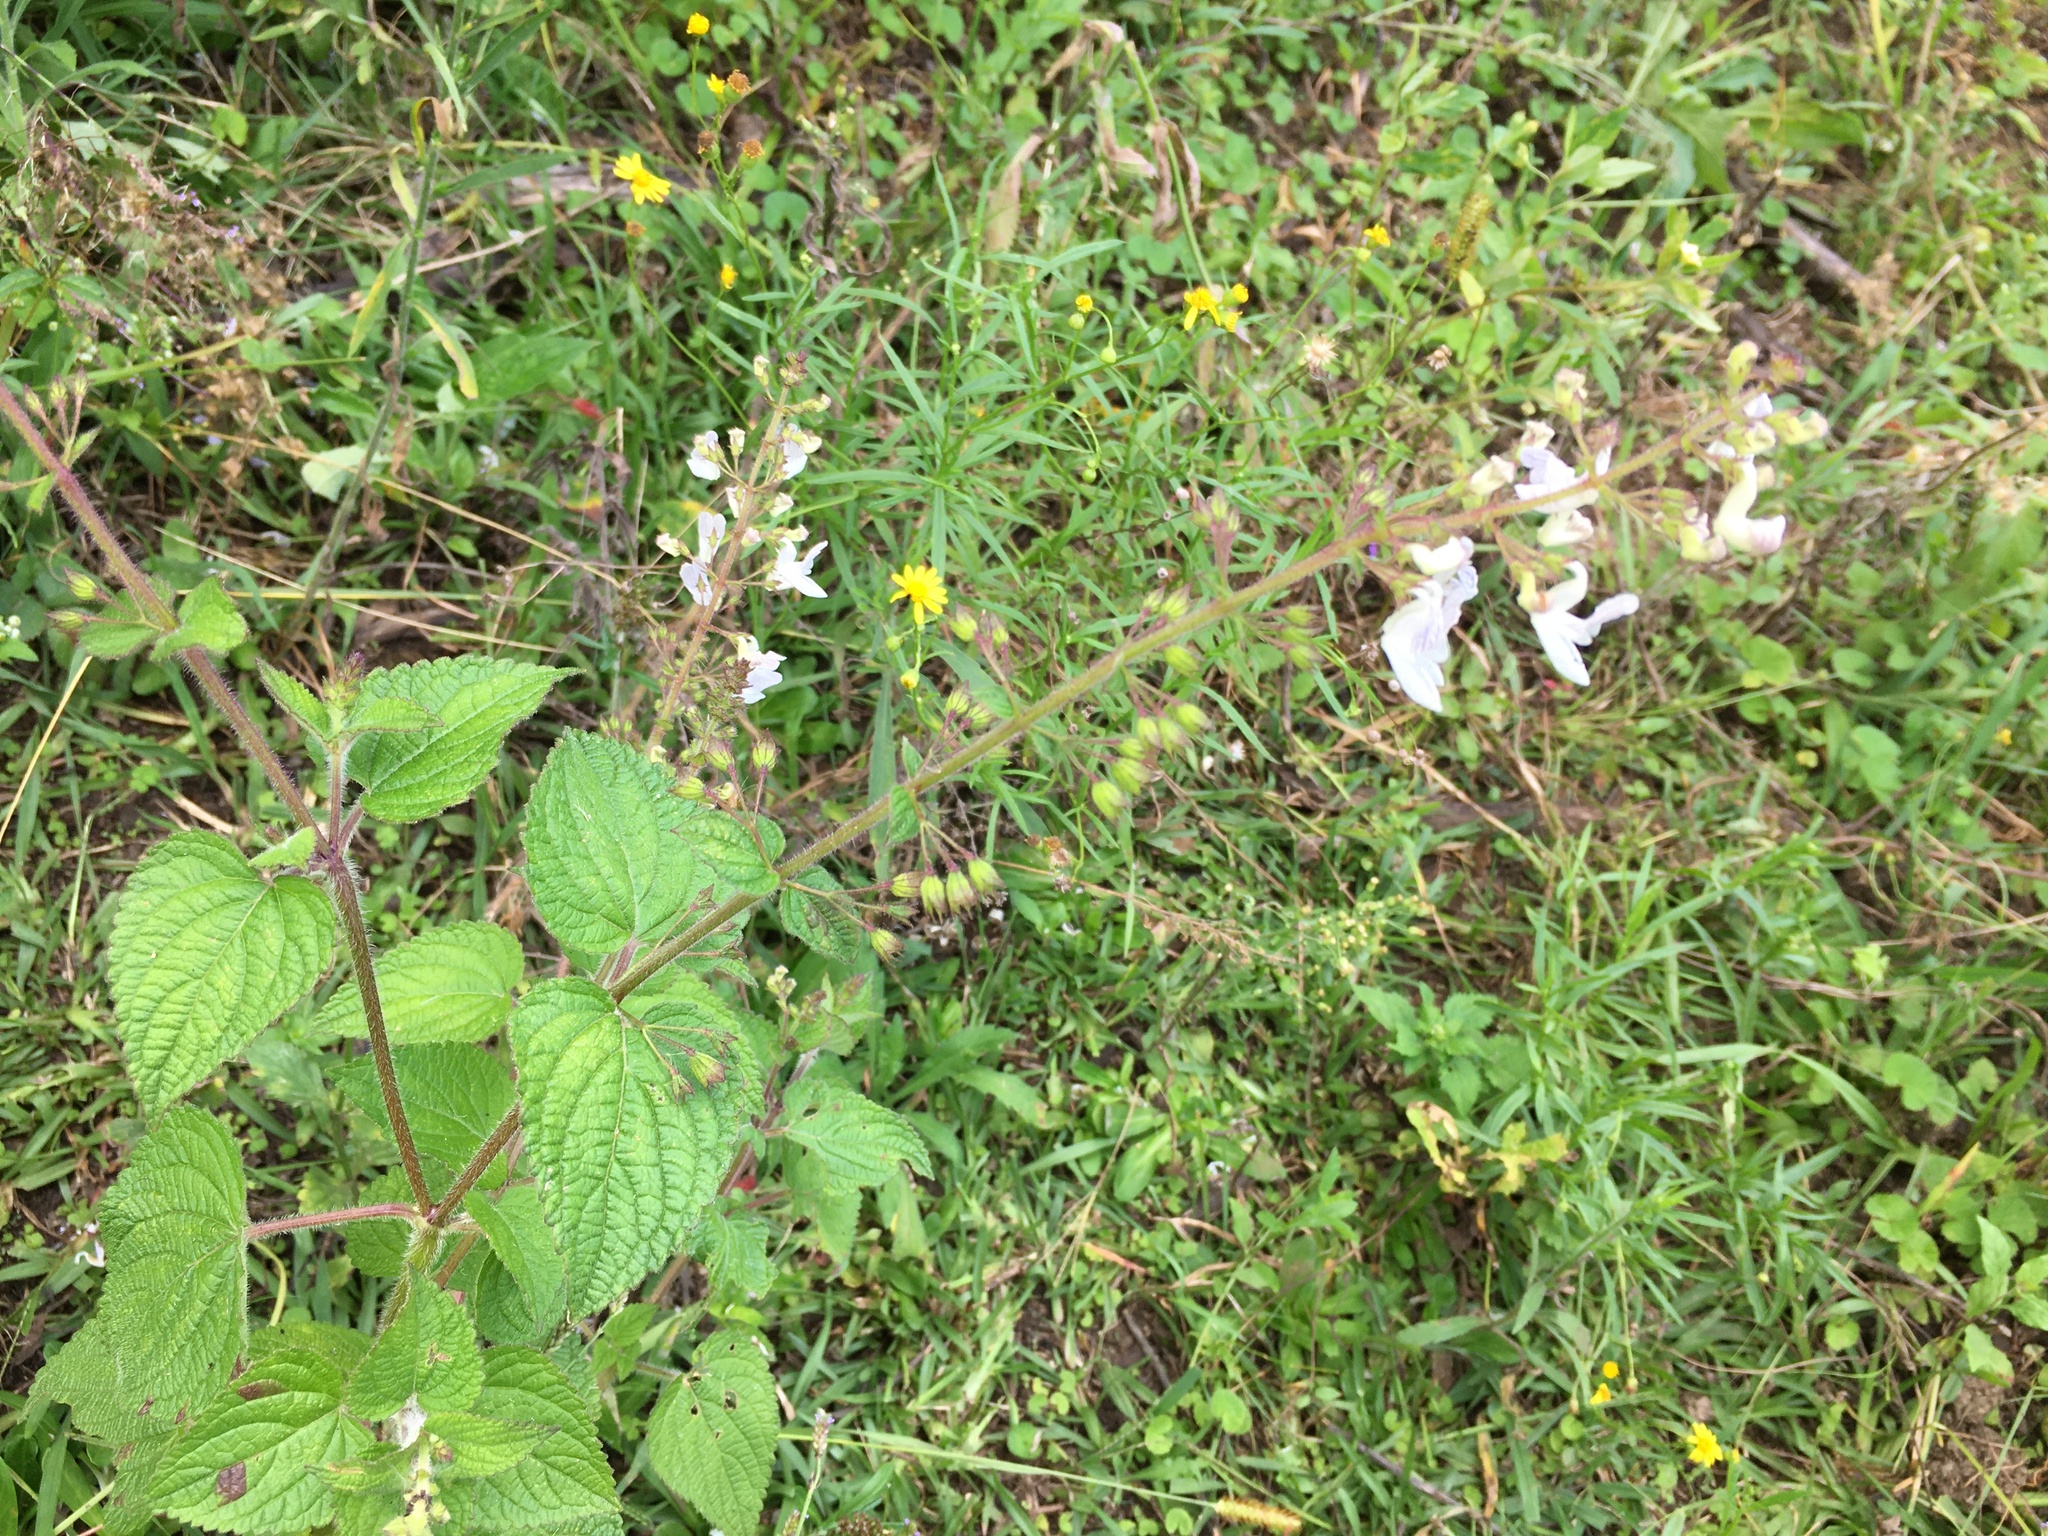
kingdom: Plantae
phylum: Tracheophyta
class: Magnoliopsida
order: Lamiales
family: Lamiaceae
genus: Equilabium
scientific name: Equilabium laxiflorum
